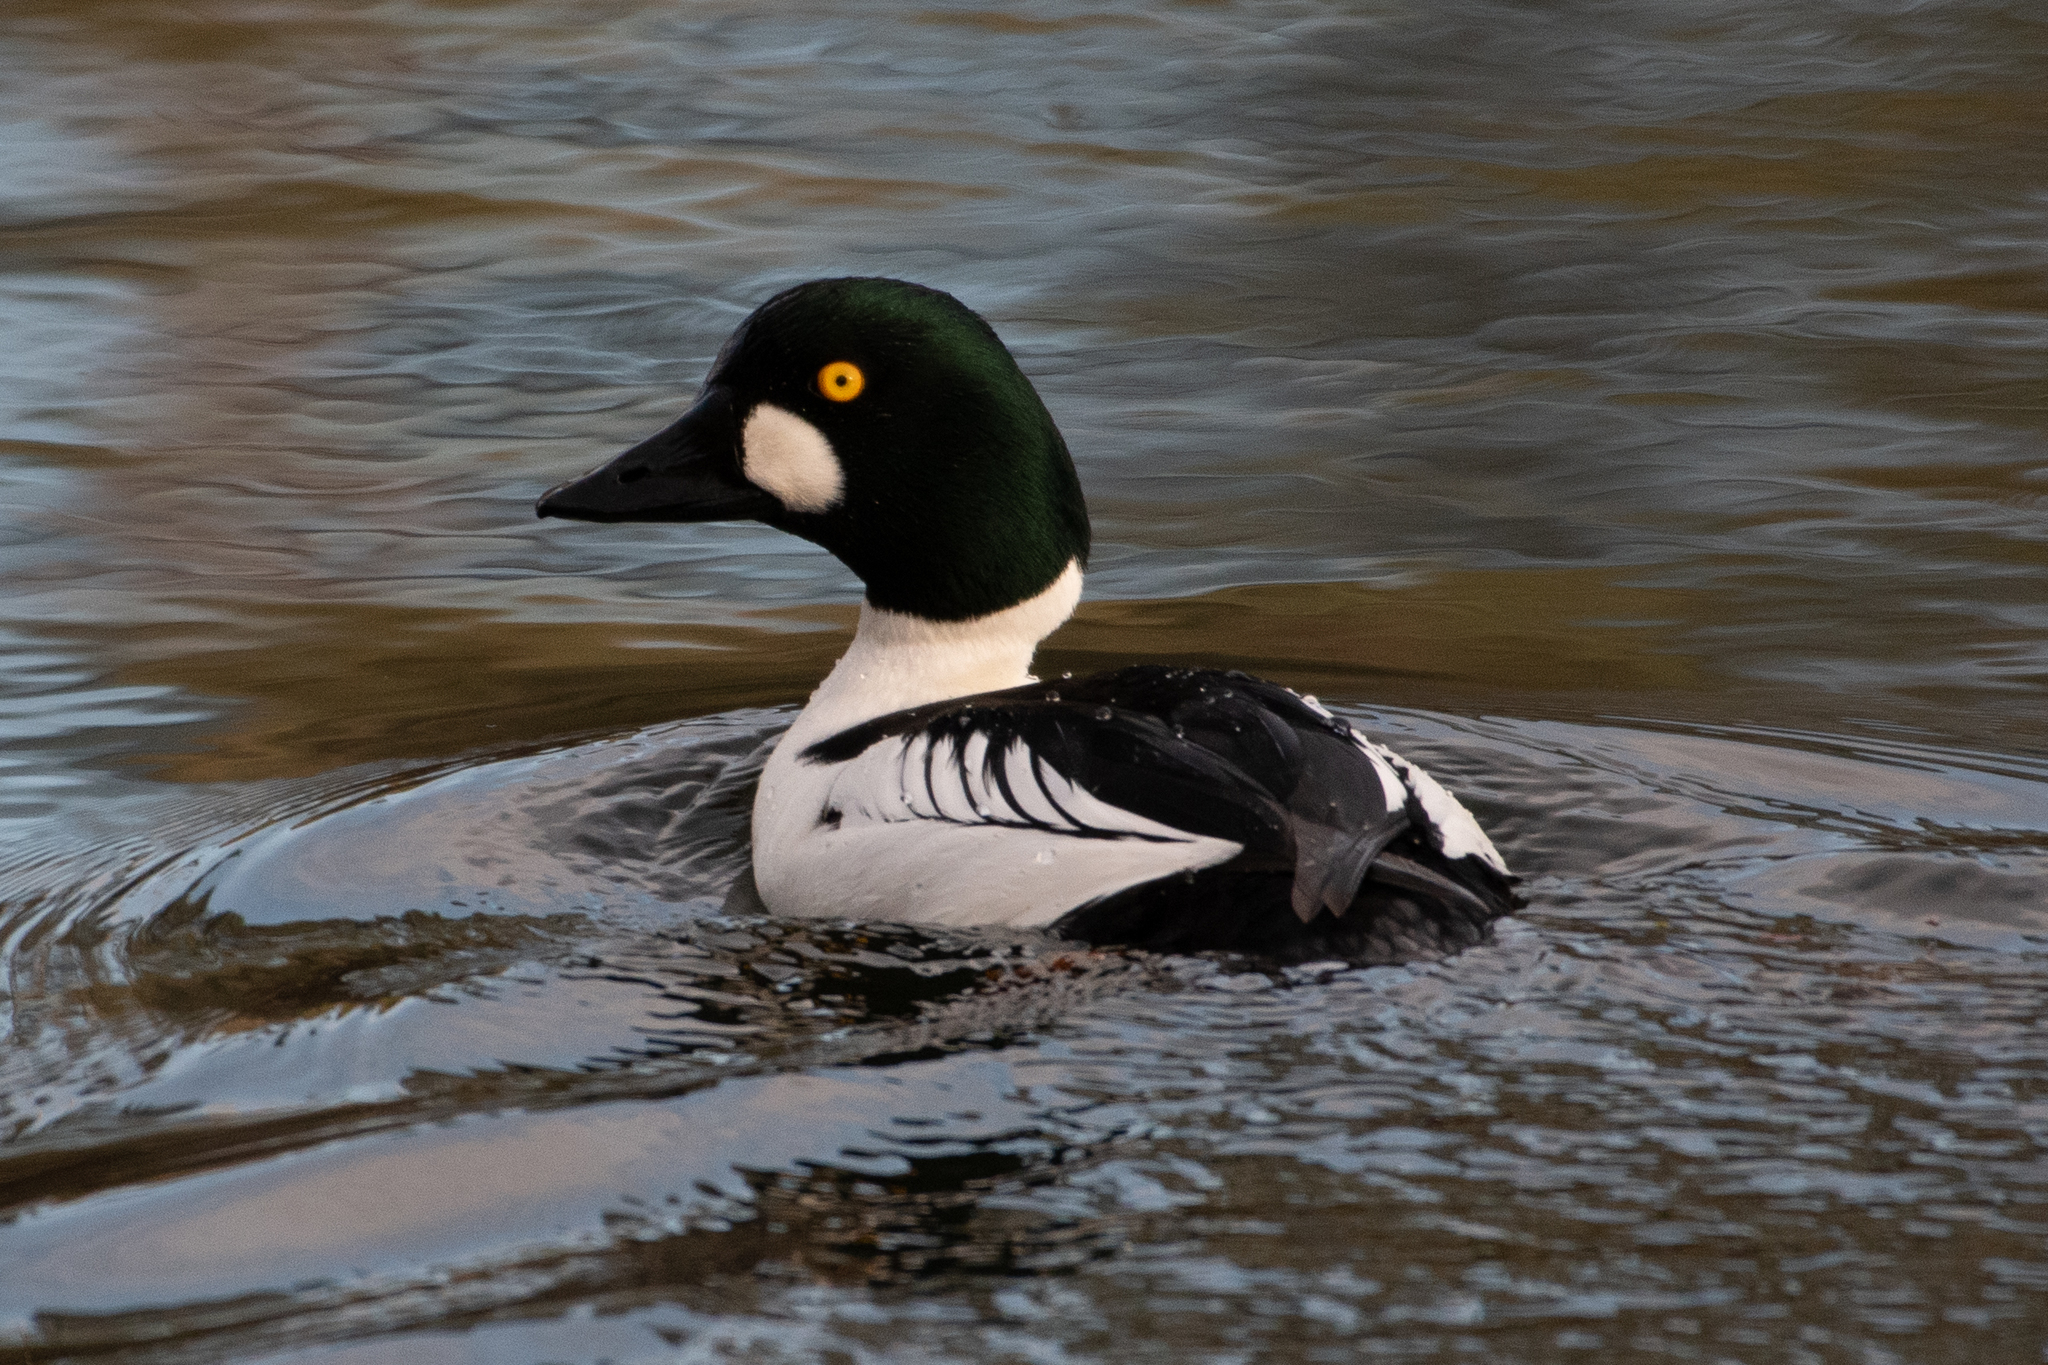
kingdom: Animalia
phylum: Chordata
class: Aves
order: Anseriformes
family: Anatidae
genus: Bucephala
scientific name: Bucephala clangula
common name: Common goldeneye
